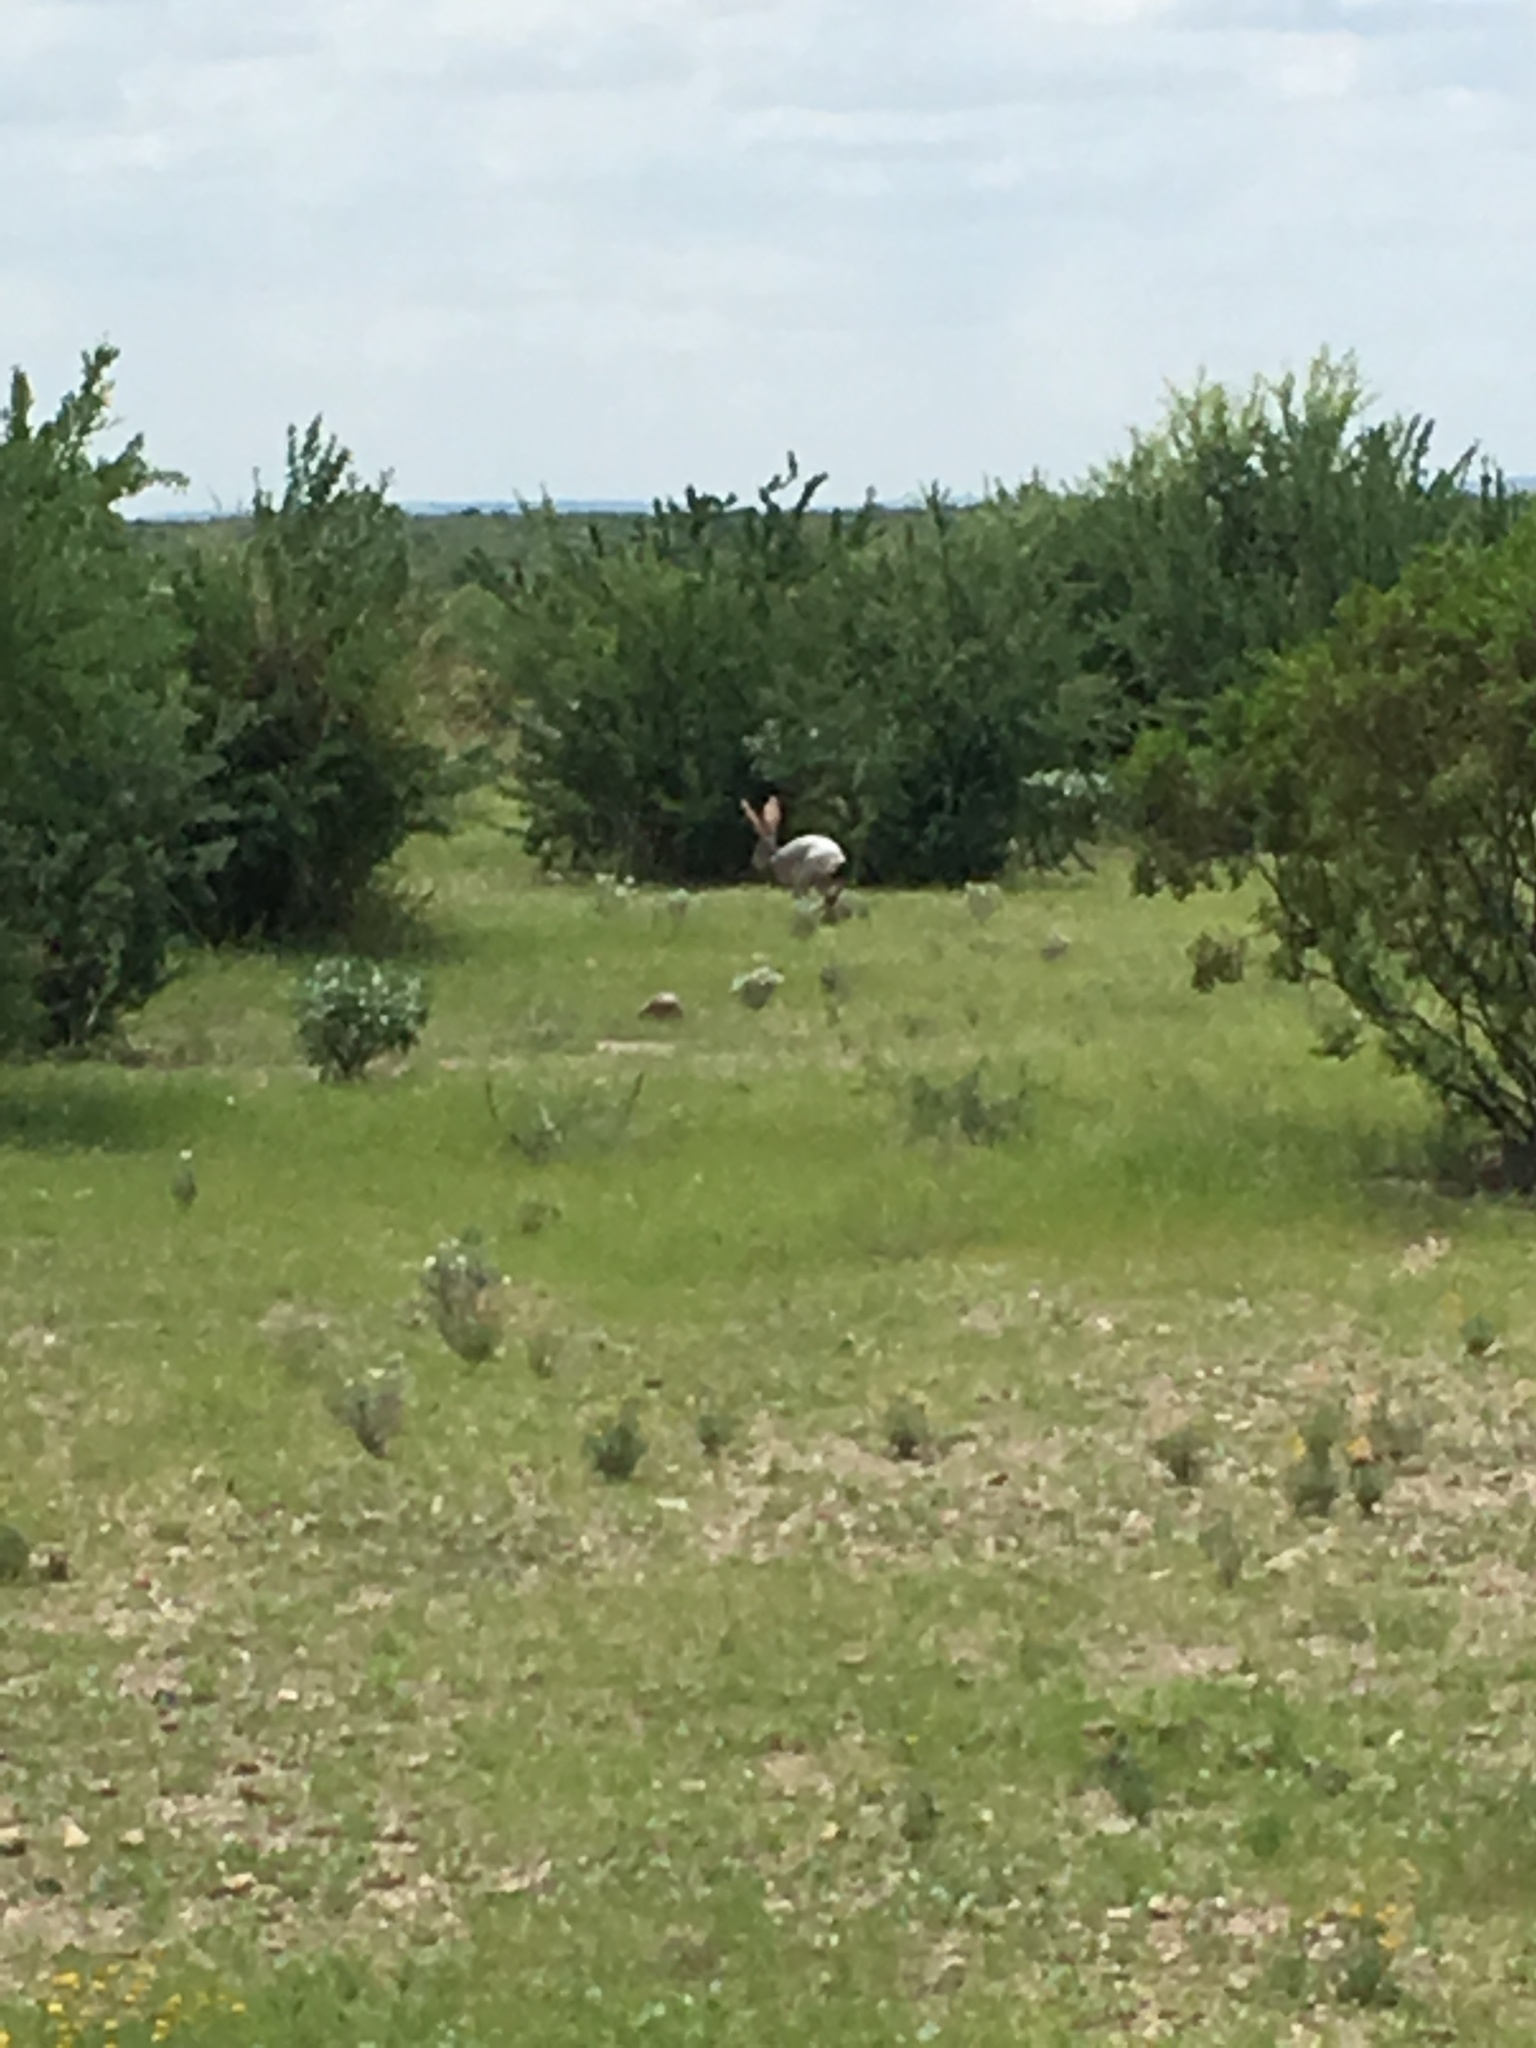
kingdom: Animalia
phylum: Chordata
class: Mammalia
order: Lagomorpha
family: Leporidae
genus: Lepus
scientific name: Lepus alleni
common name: Antelope jackrabbit
